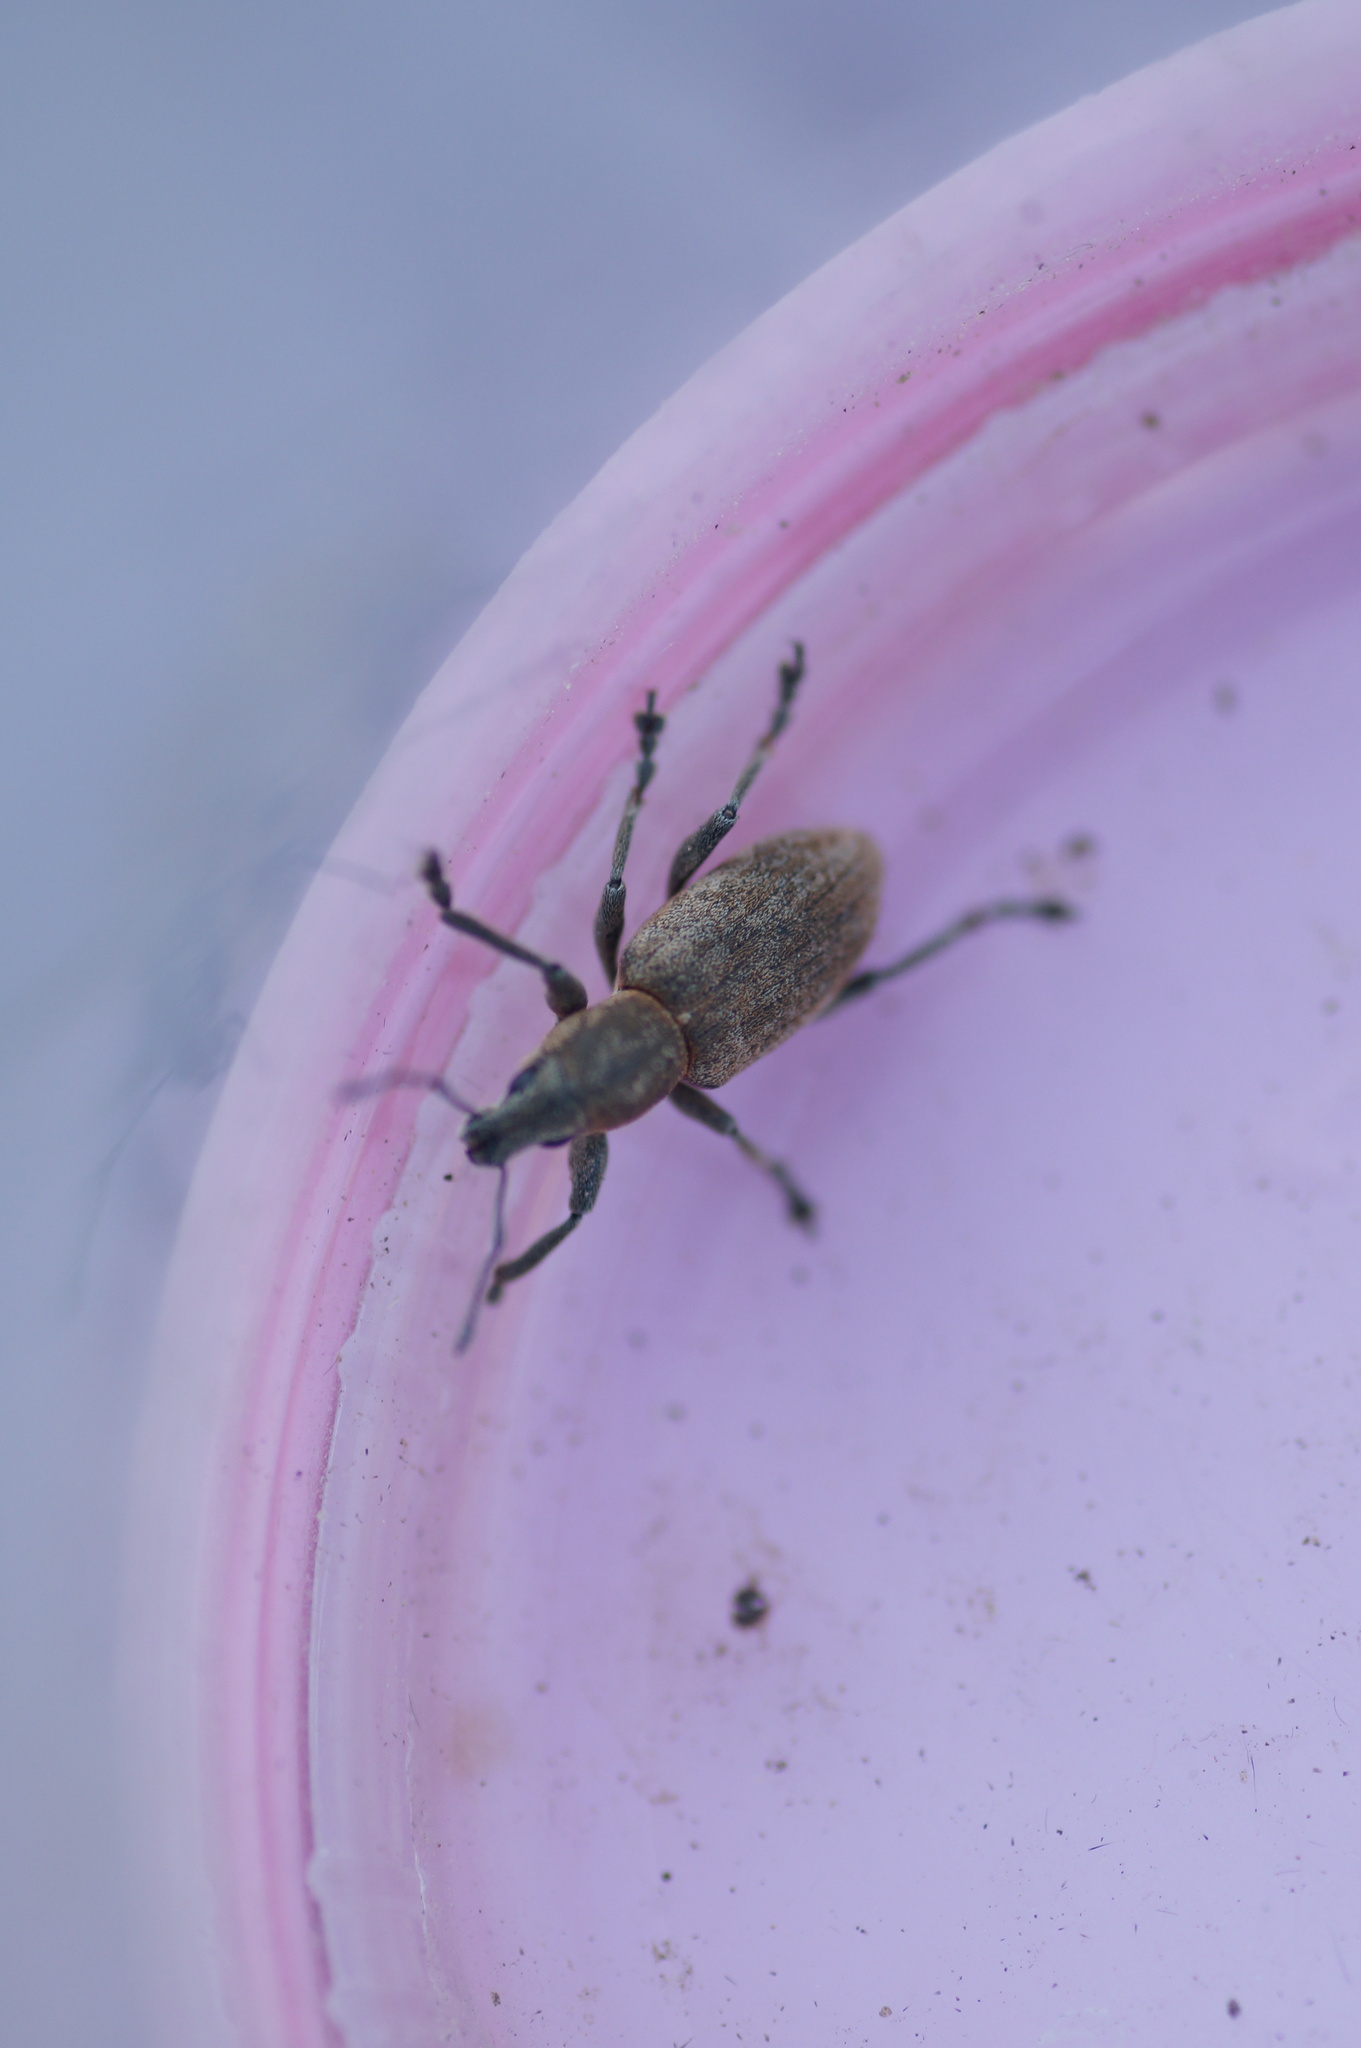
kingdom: Animalia
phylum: Arthropoda
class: Insecta
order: Coleoptera
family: Curculionidae
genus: Tanymecus
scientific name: Tanymecus palliatus
